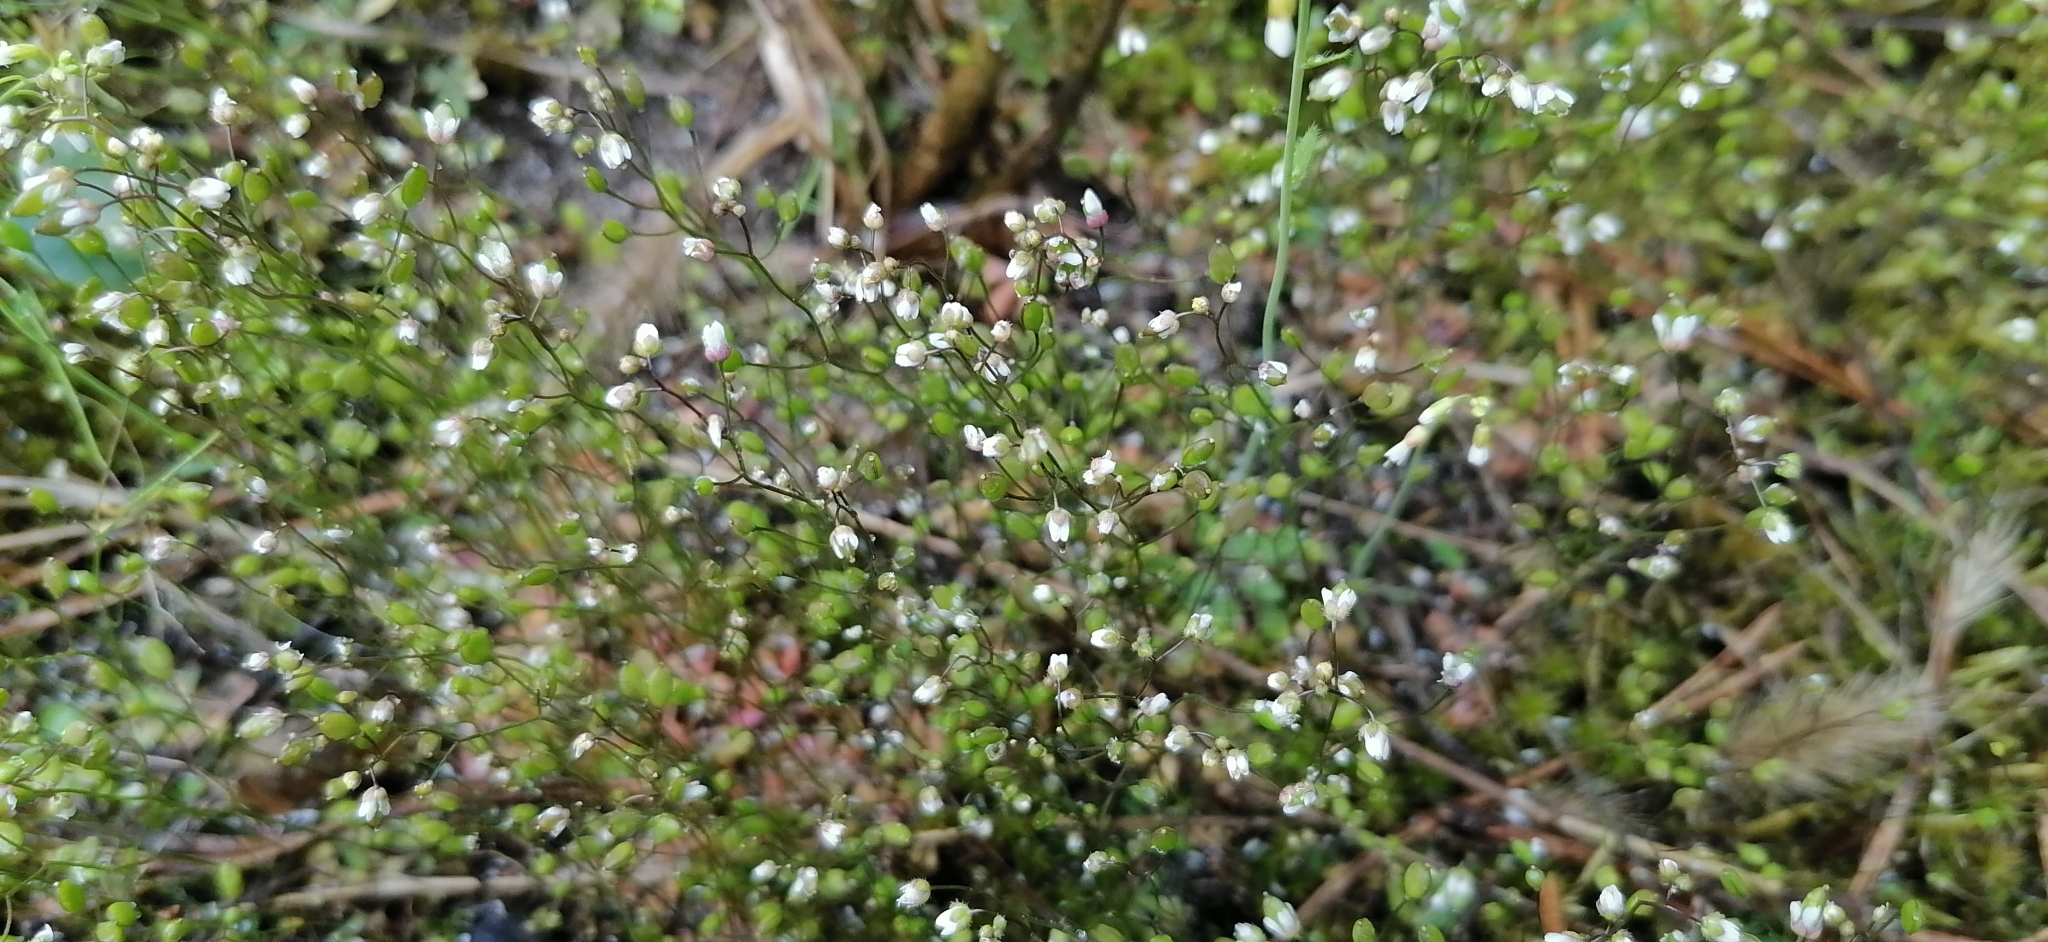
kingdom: Plantae
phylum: Tracheophyta
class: Magnoliopsida
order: Brassicales
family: Brassicaceae
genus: Draba
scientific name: Draba verna
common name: Spring draba
